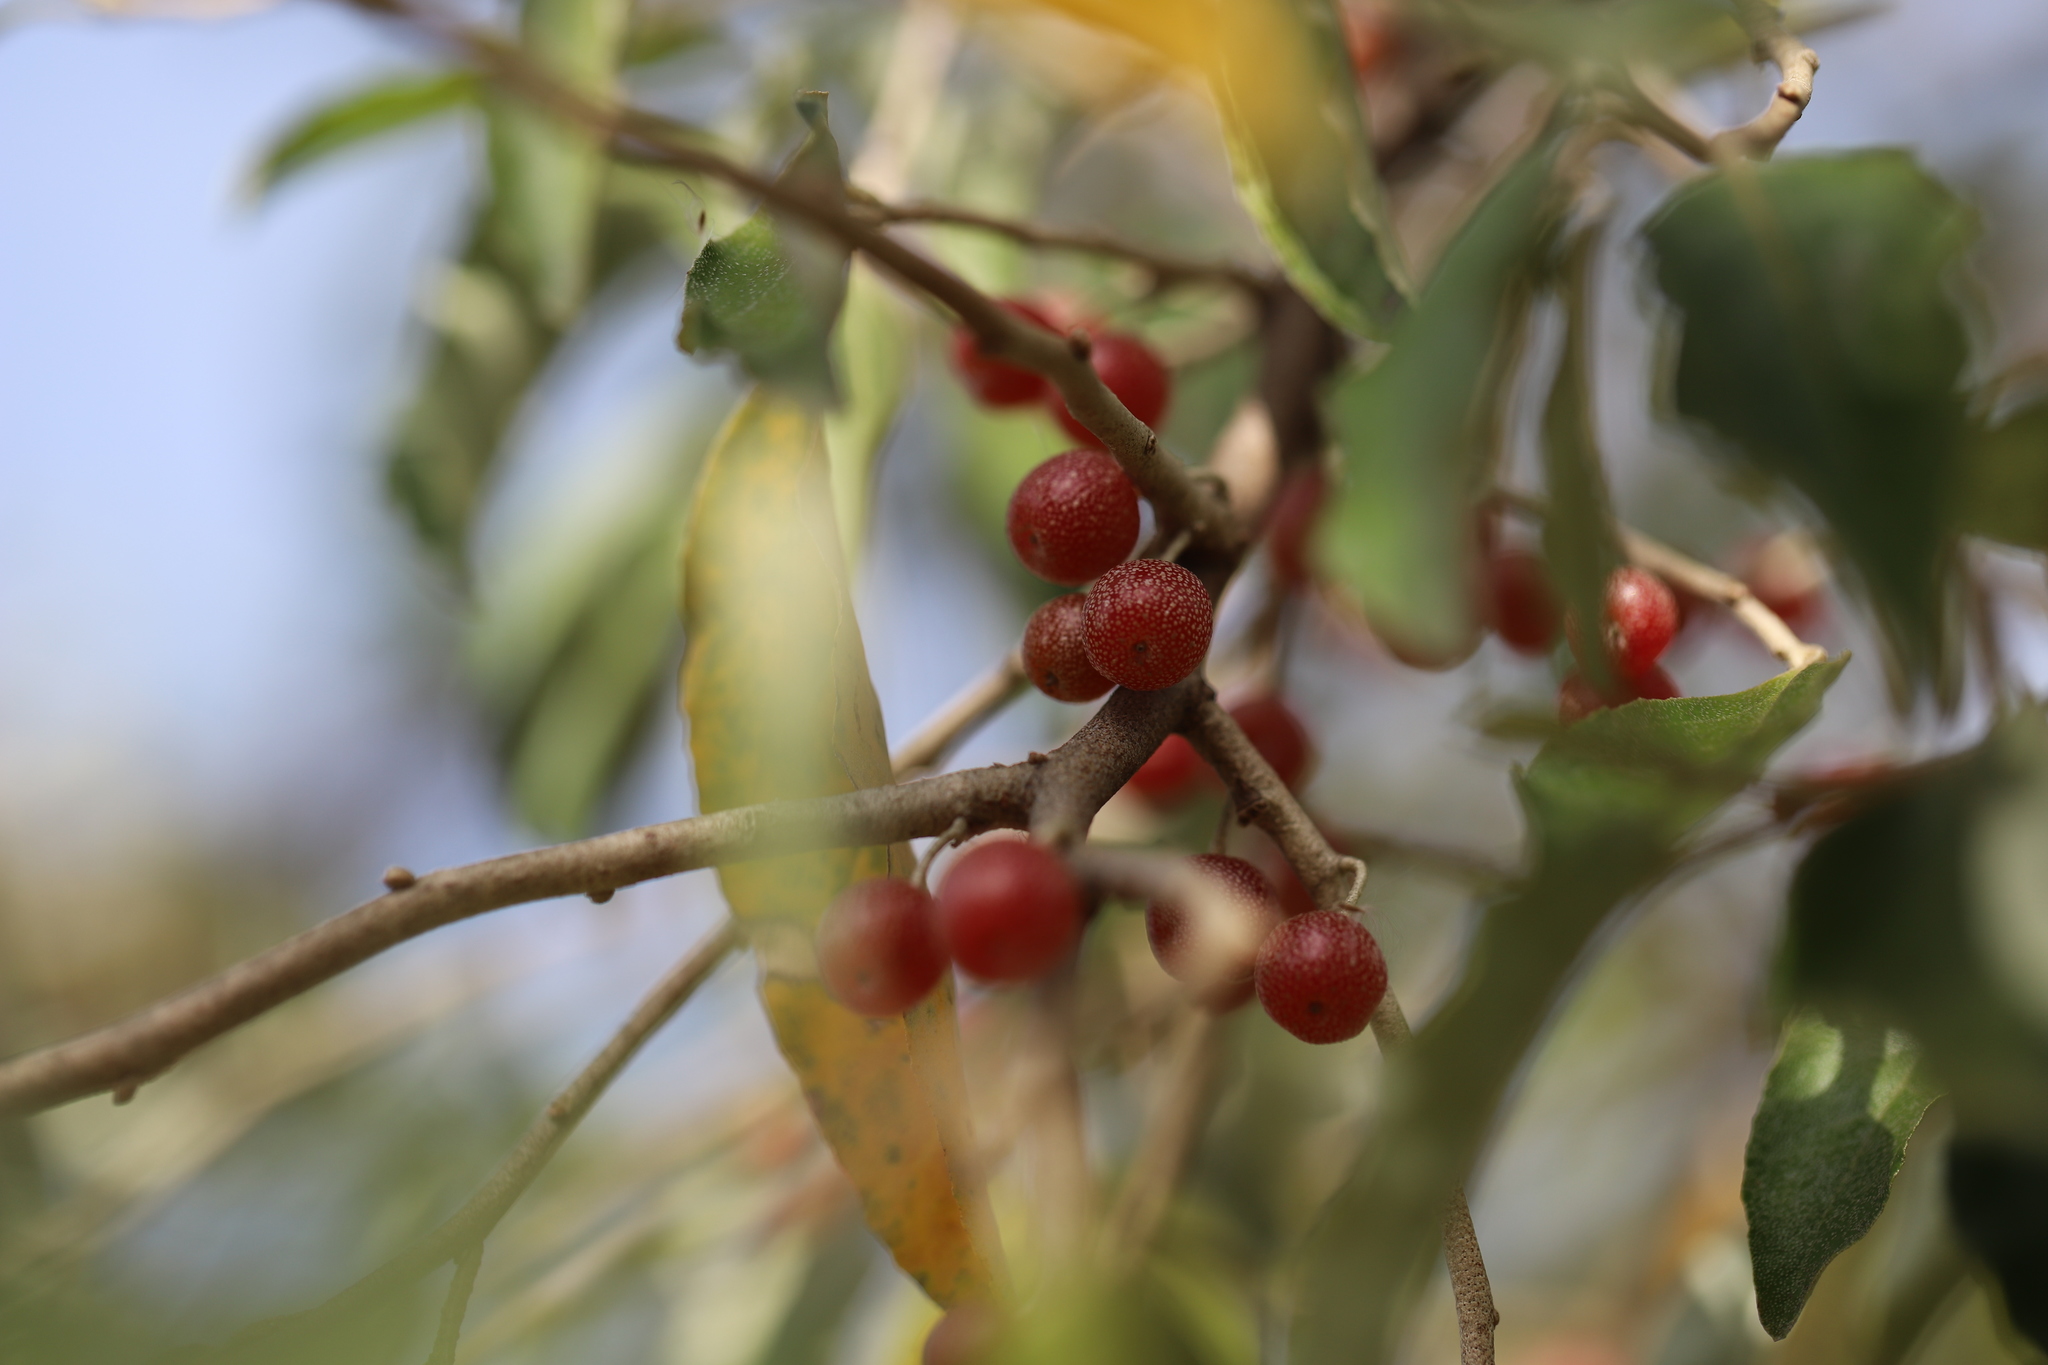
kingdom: Plantae
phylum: Tracheophyta
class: Magnoliopsida
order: Rosales
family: Elaeagnaceae
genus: Elaeagnus
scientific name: Elaeagnus umbellata
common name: Autumn olive
